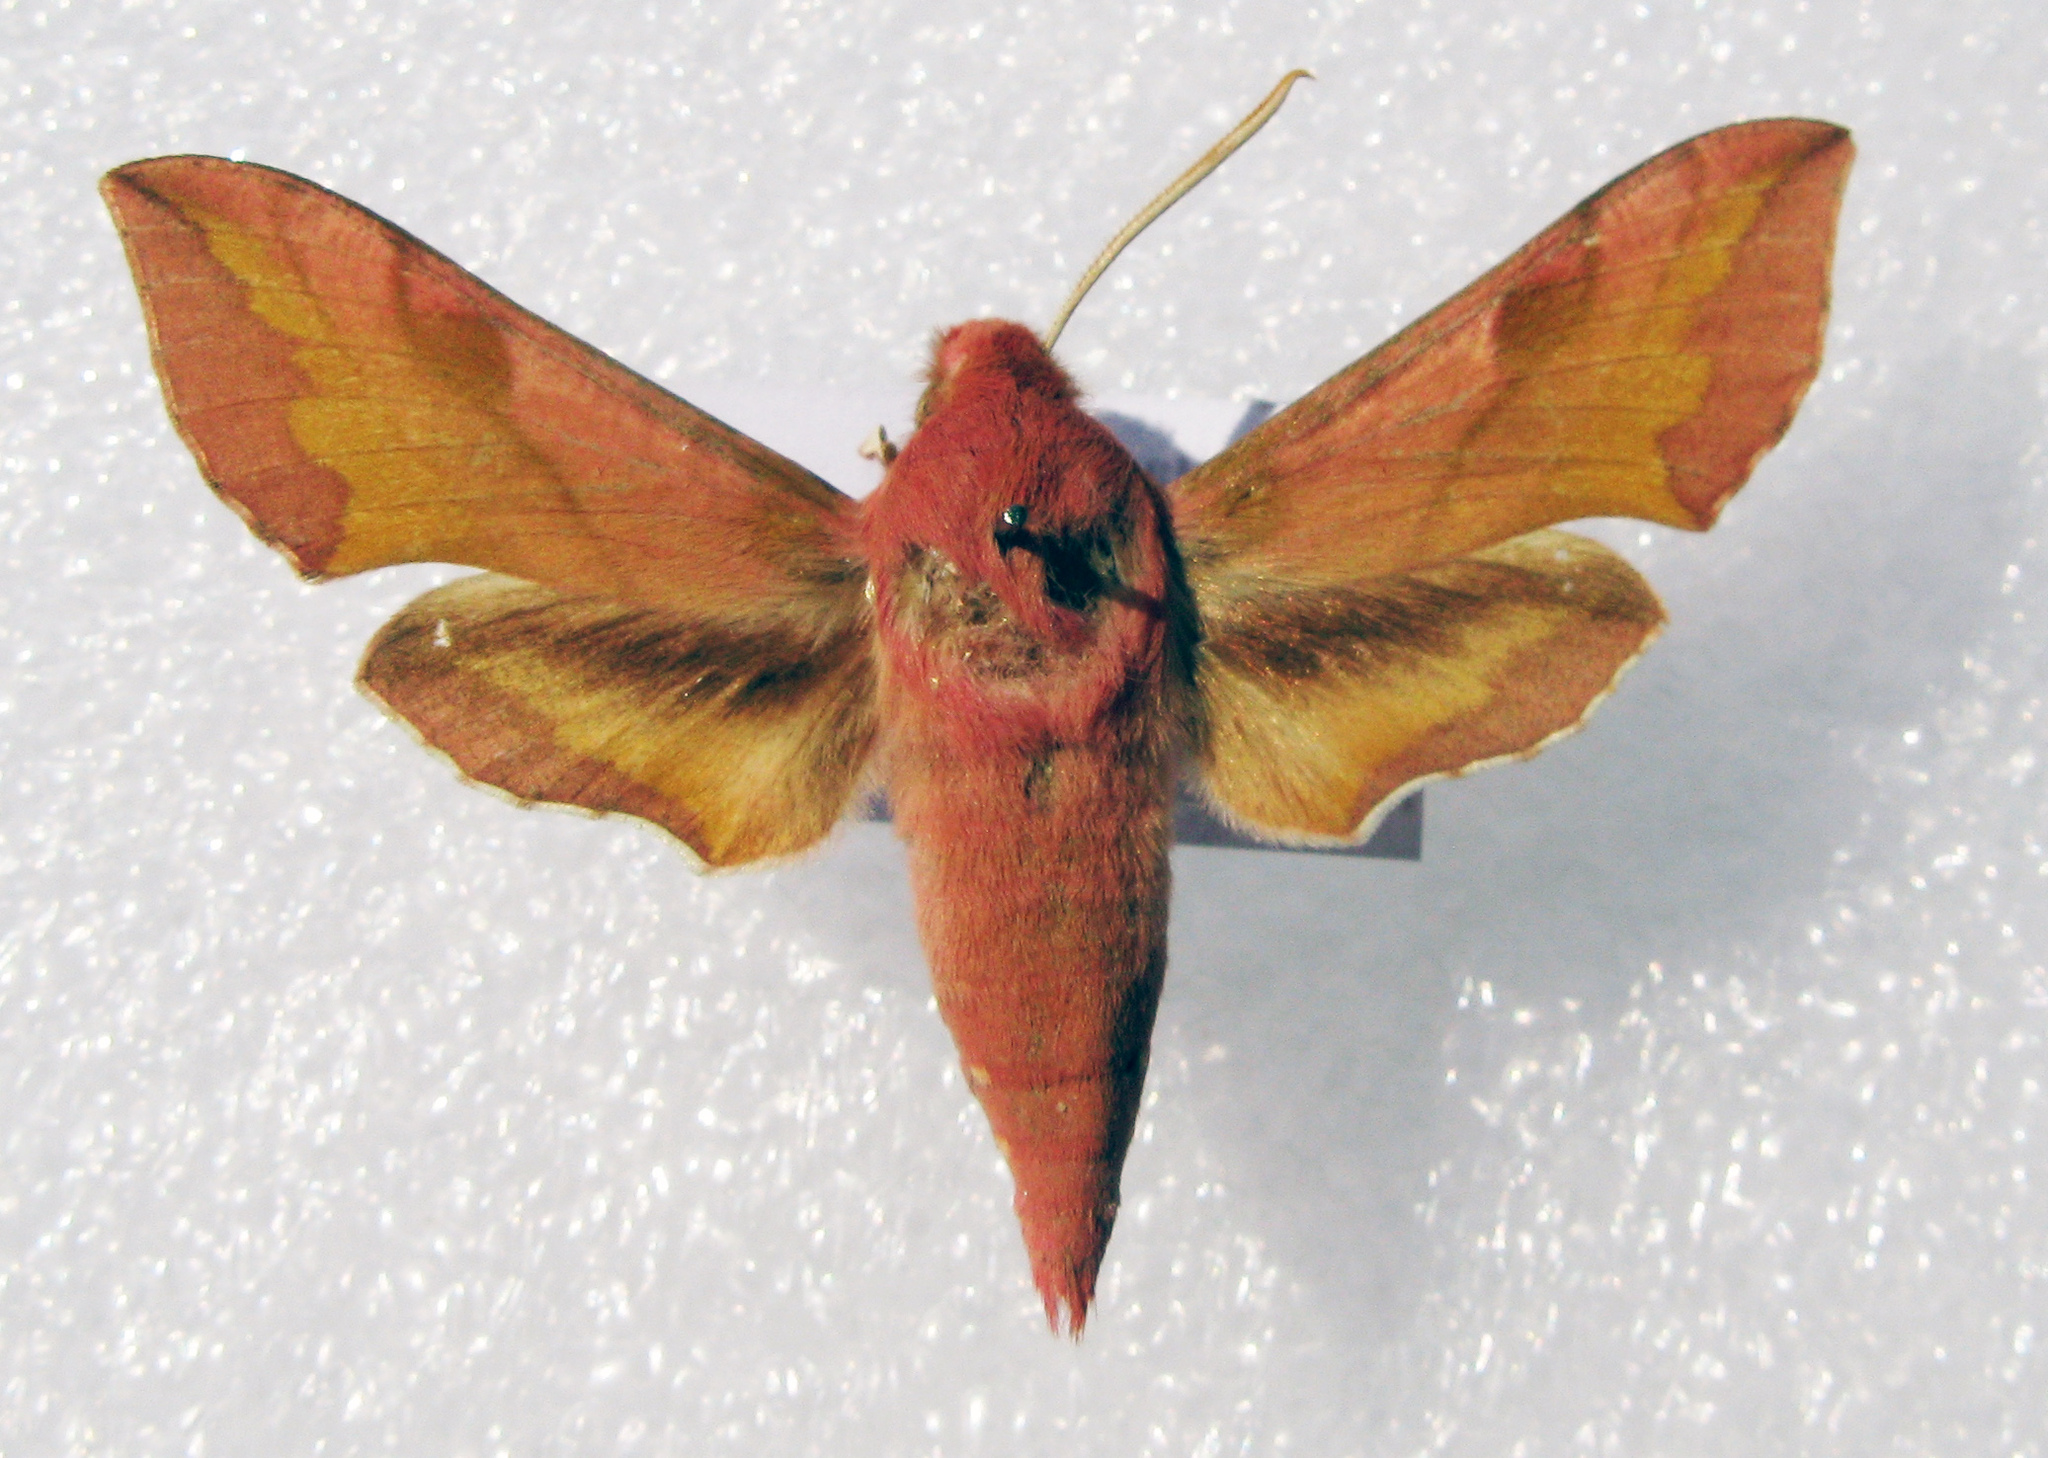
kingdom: Animalia
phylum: Arthropoda
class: Insecta
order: Lepidoptera
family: Sphingidae
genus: Deilephila
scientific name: Deilephila porcellus
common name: Small elephant hawk-moth
